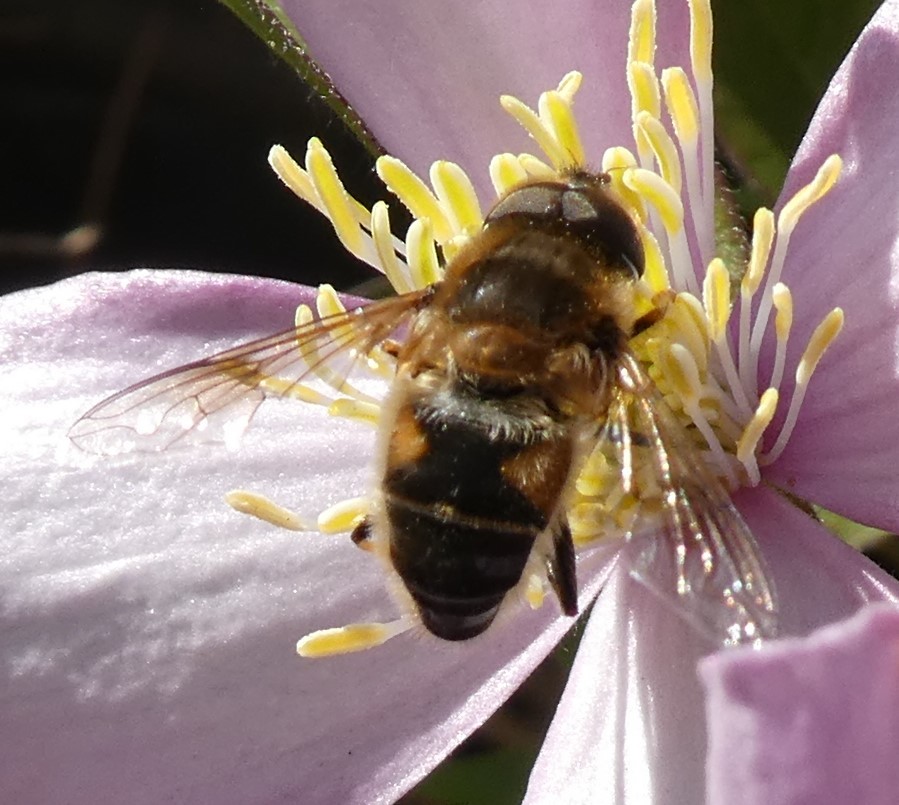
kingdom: Animalia
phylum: Arthropoda
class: Insecta
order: Diptera
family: Syrphidae
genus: Eristalis
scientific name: Eristalis
